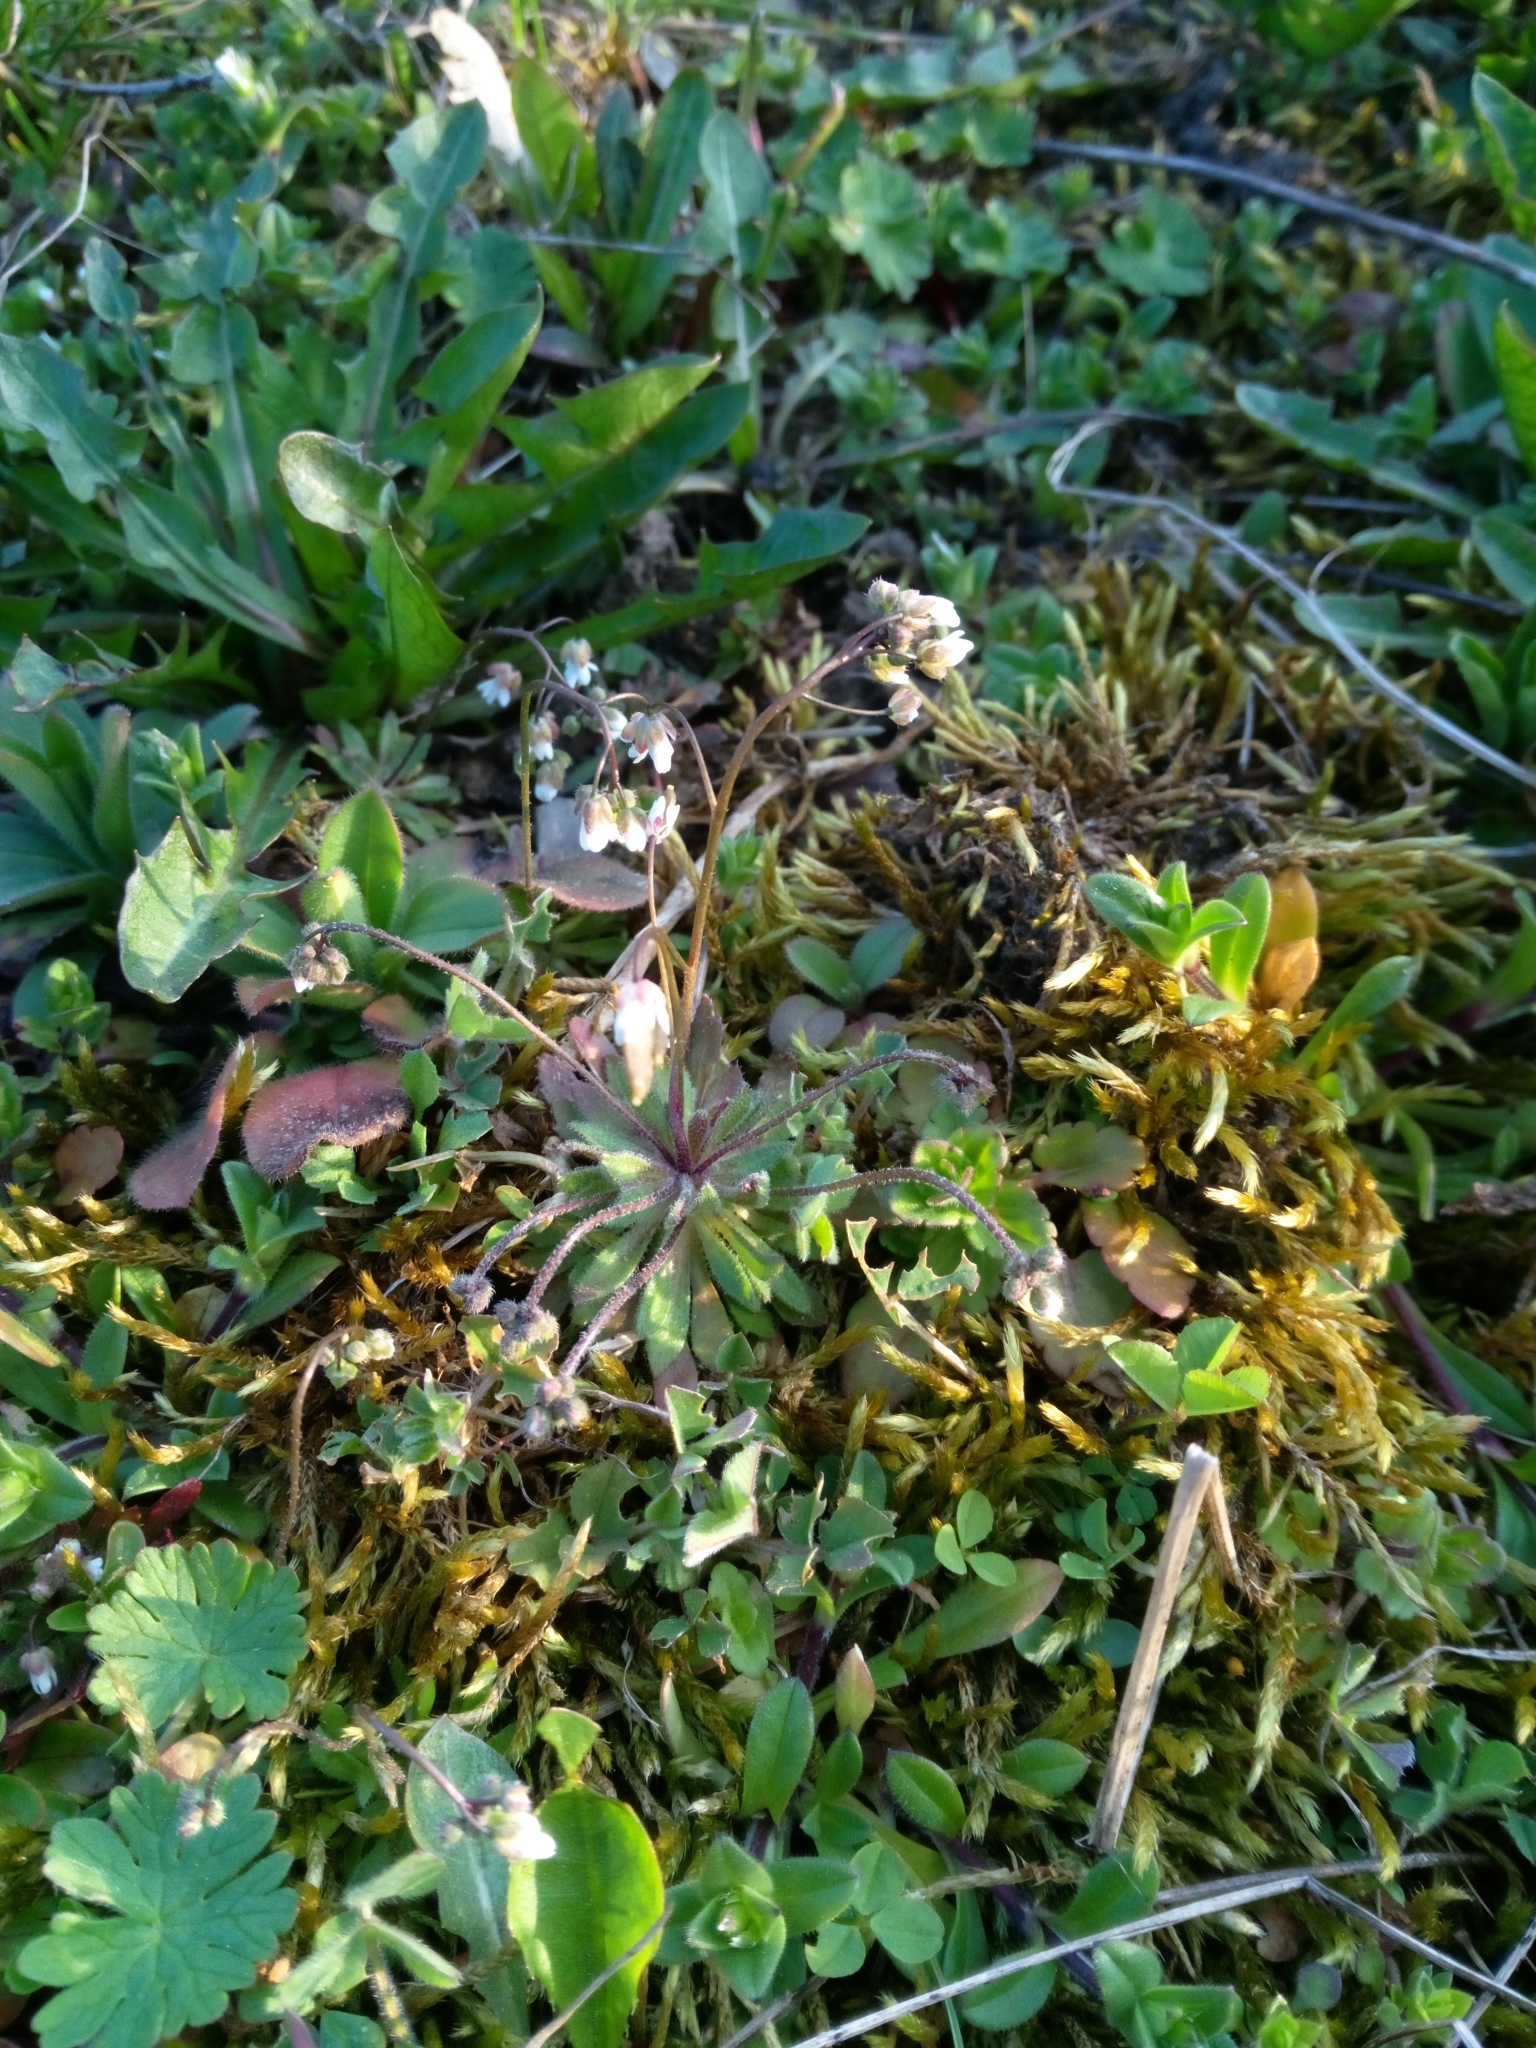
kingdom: Plantae
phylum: Tracheophyta
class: Magnoliopsida
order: Brassicales
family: Brassicaceae
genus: Draba
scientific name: Draba verna
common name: Spring draba
